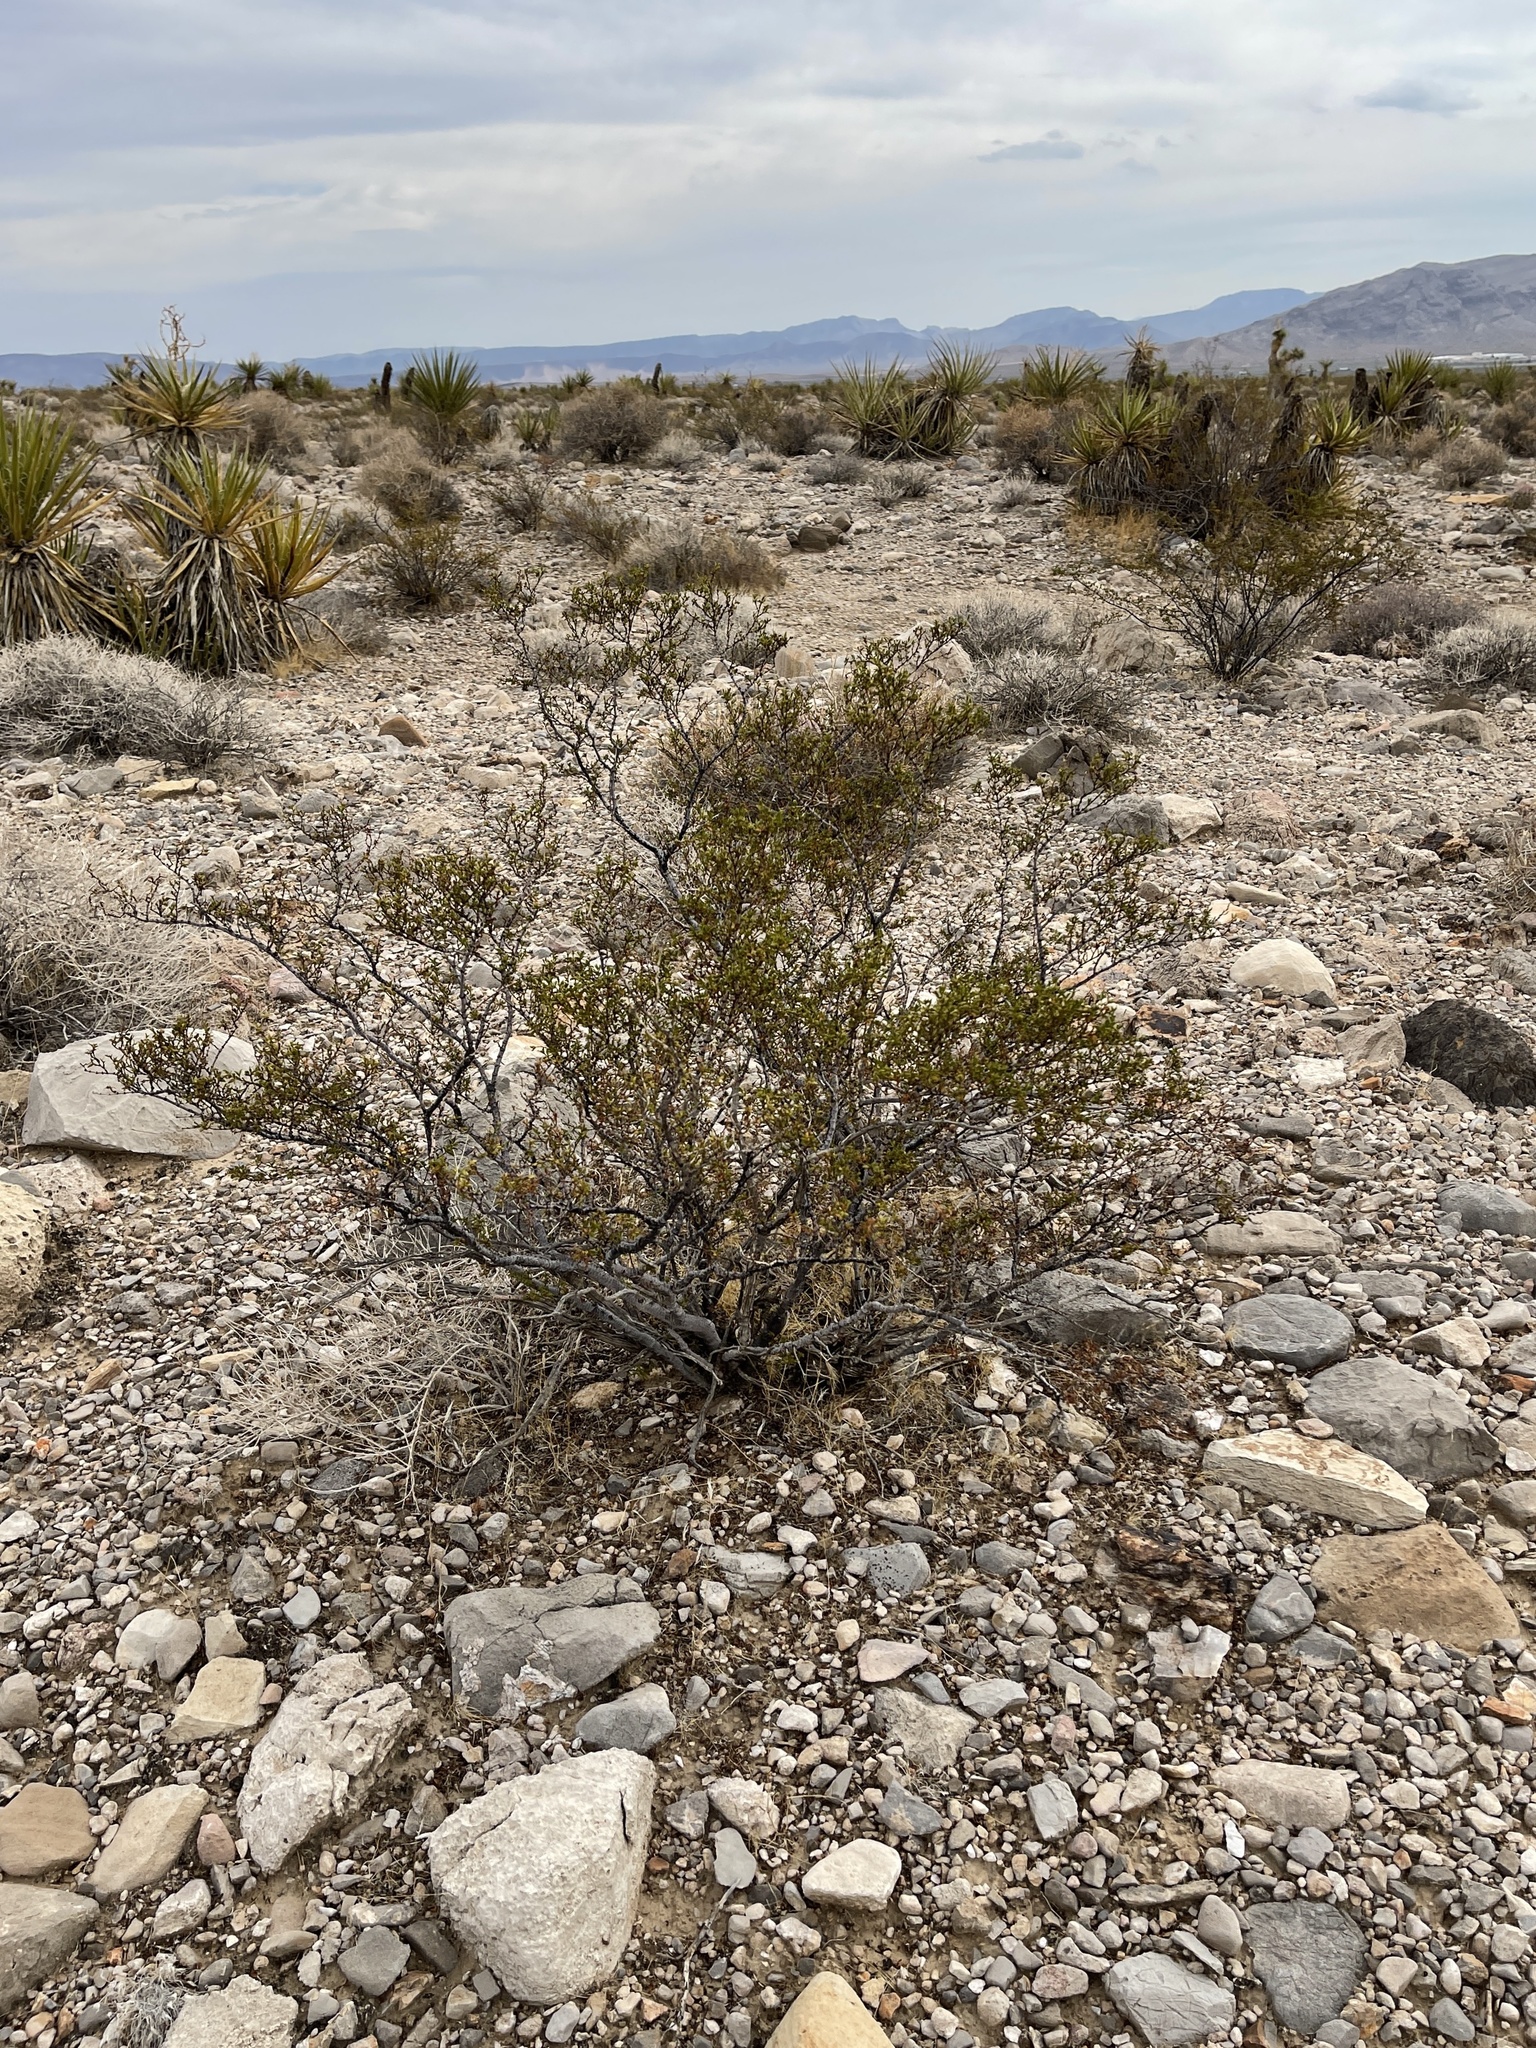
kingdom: Plantae
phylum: Tracheophyta
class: Magnoliopsida
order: Zygophyllales
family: Zygophyllaceae
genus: Larrea
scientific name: Larrea tridentata
